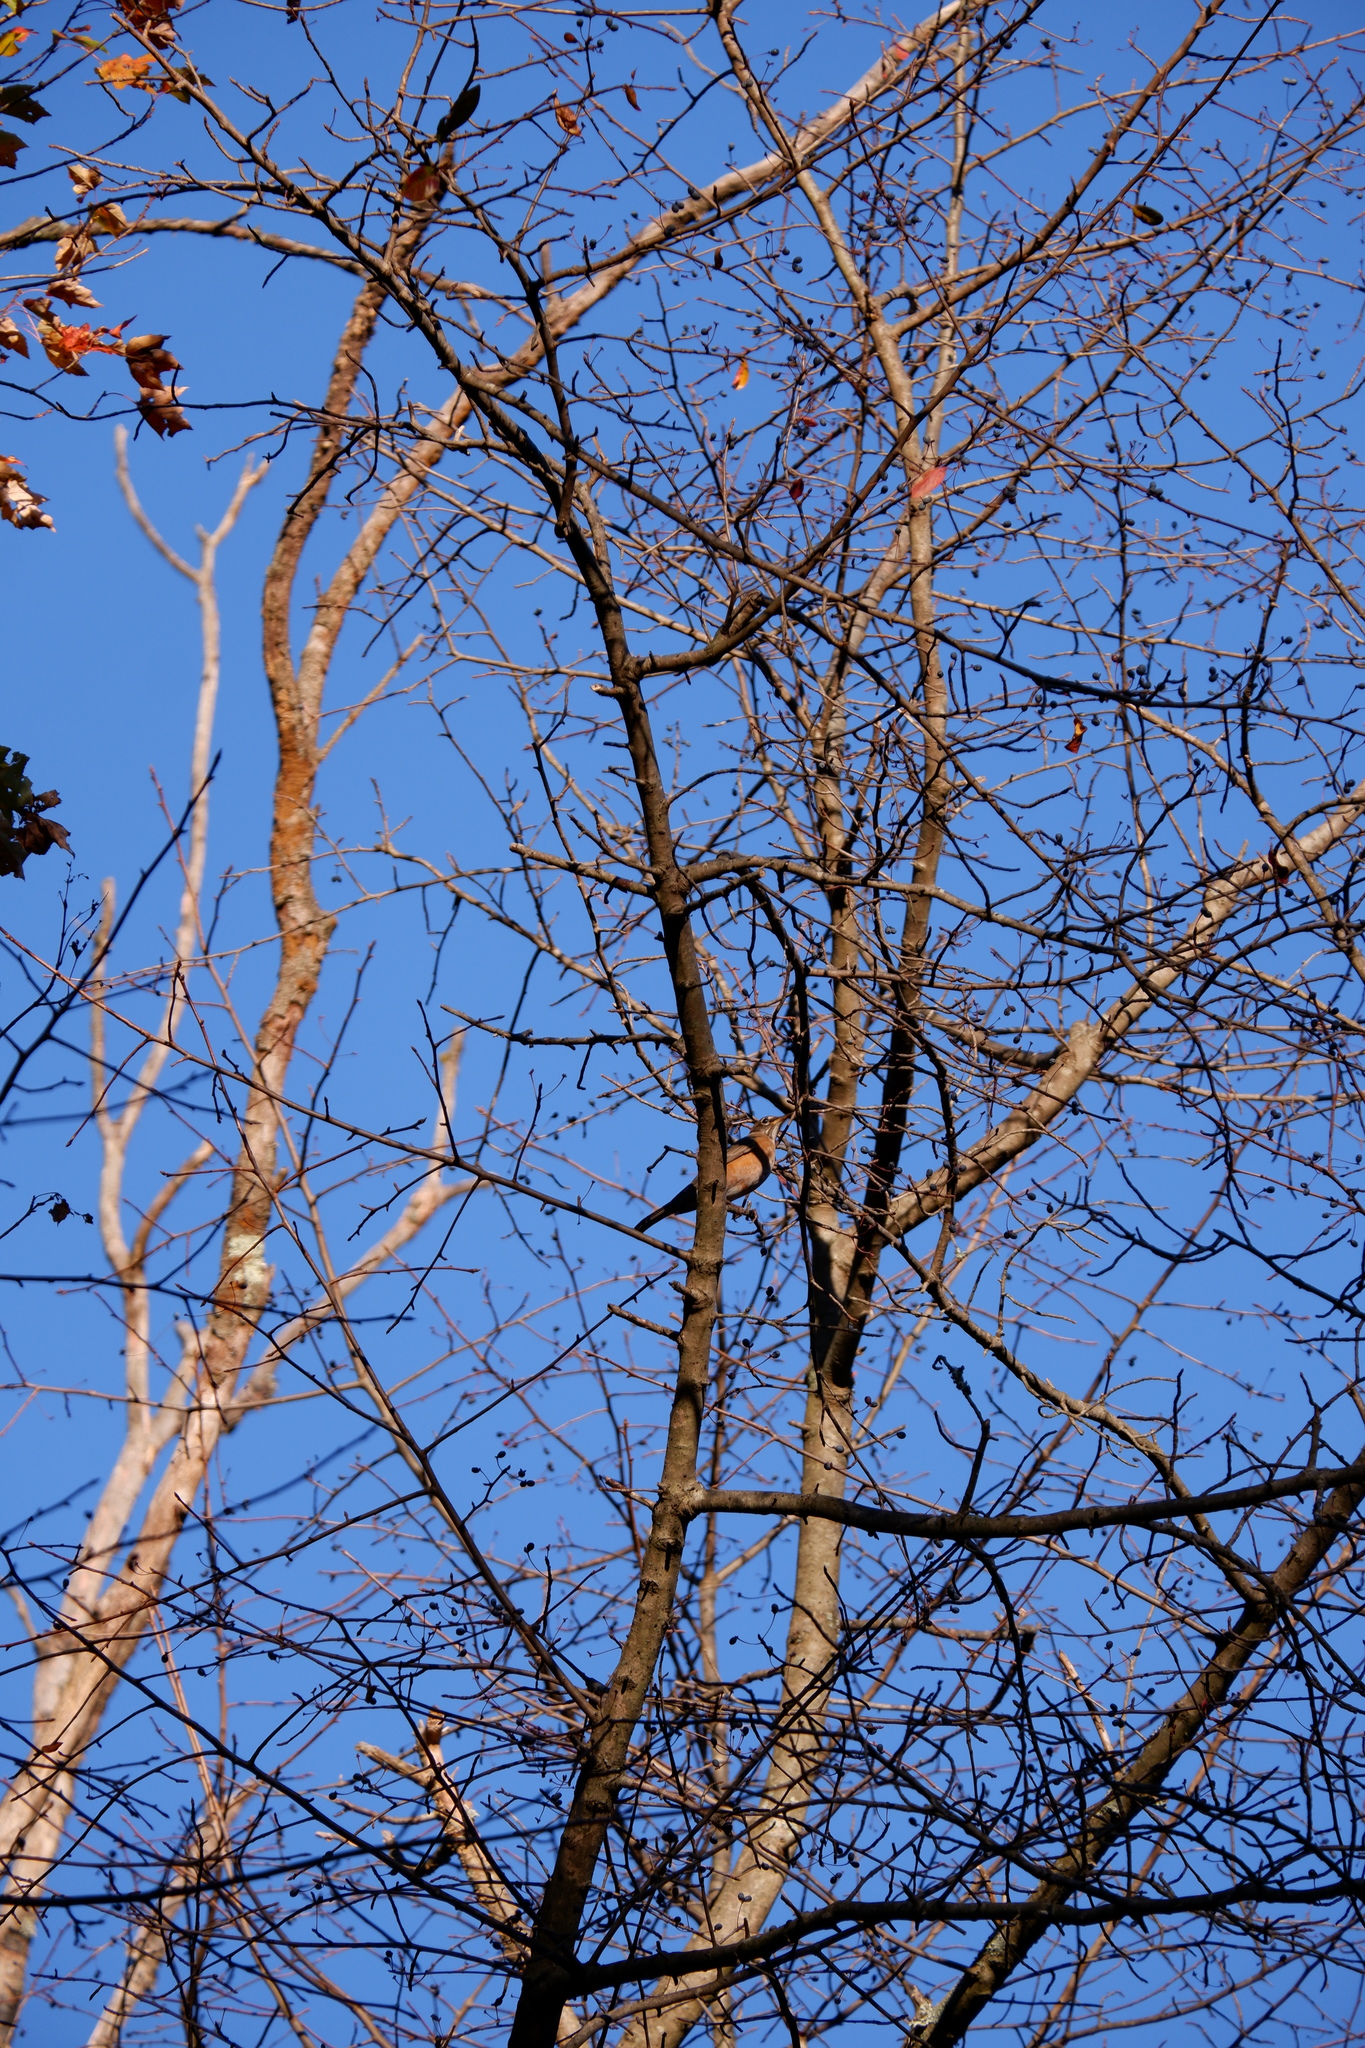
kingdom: Animalia
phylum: Chordata
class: Aves
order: Passeriformes
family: Turdidae
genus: Turdus
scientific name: Turdus migratorius
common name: American robin
